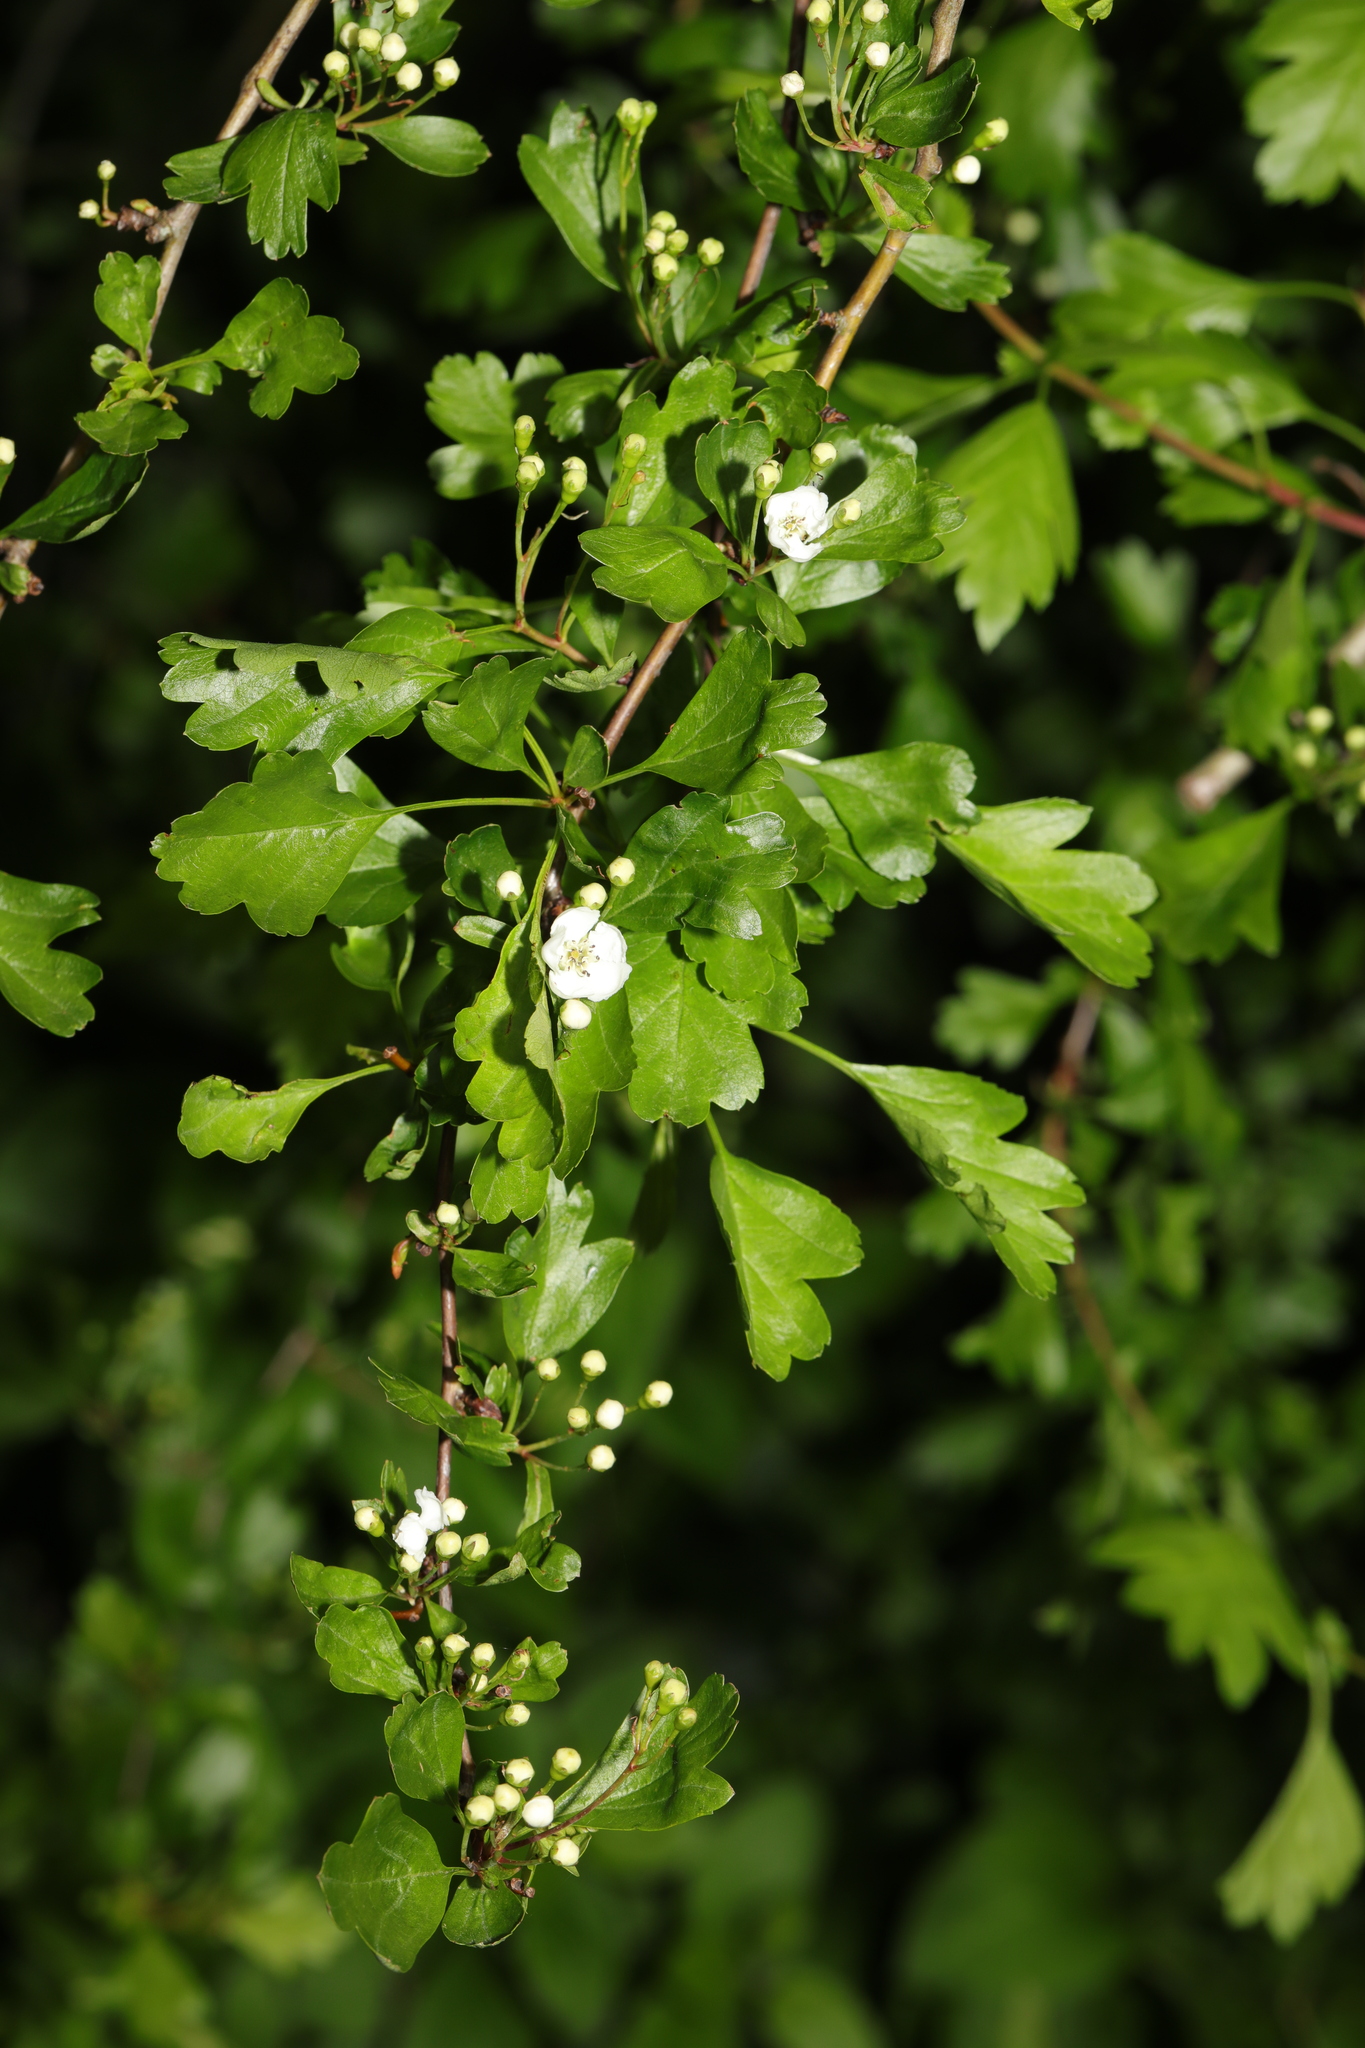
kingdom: Plantae
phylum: Tracheophyta
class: Magnoliopsida
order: Rosales
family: Rosaceae
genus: Crataegus
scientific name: Crataegus monogyna
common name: Hawthorn
